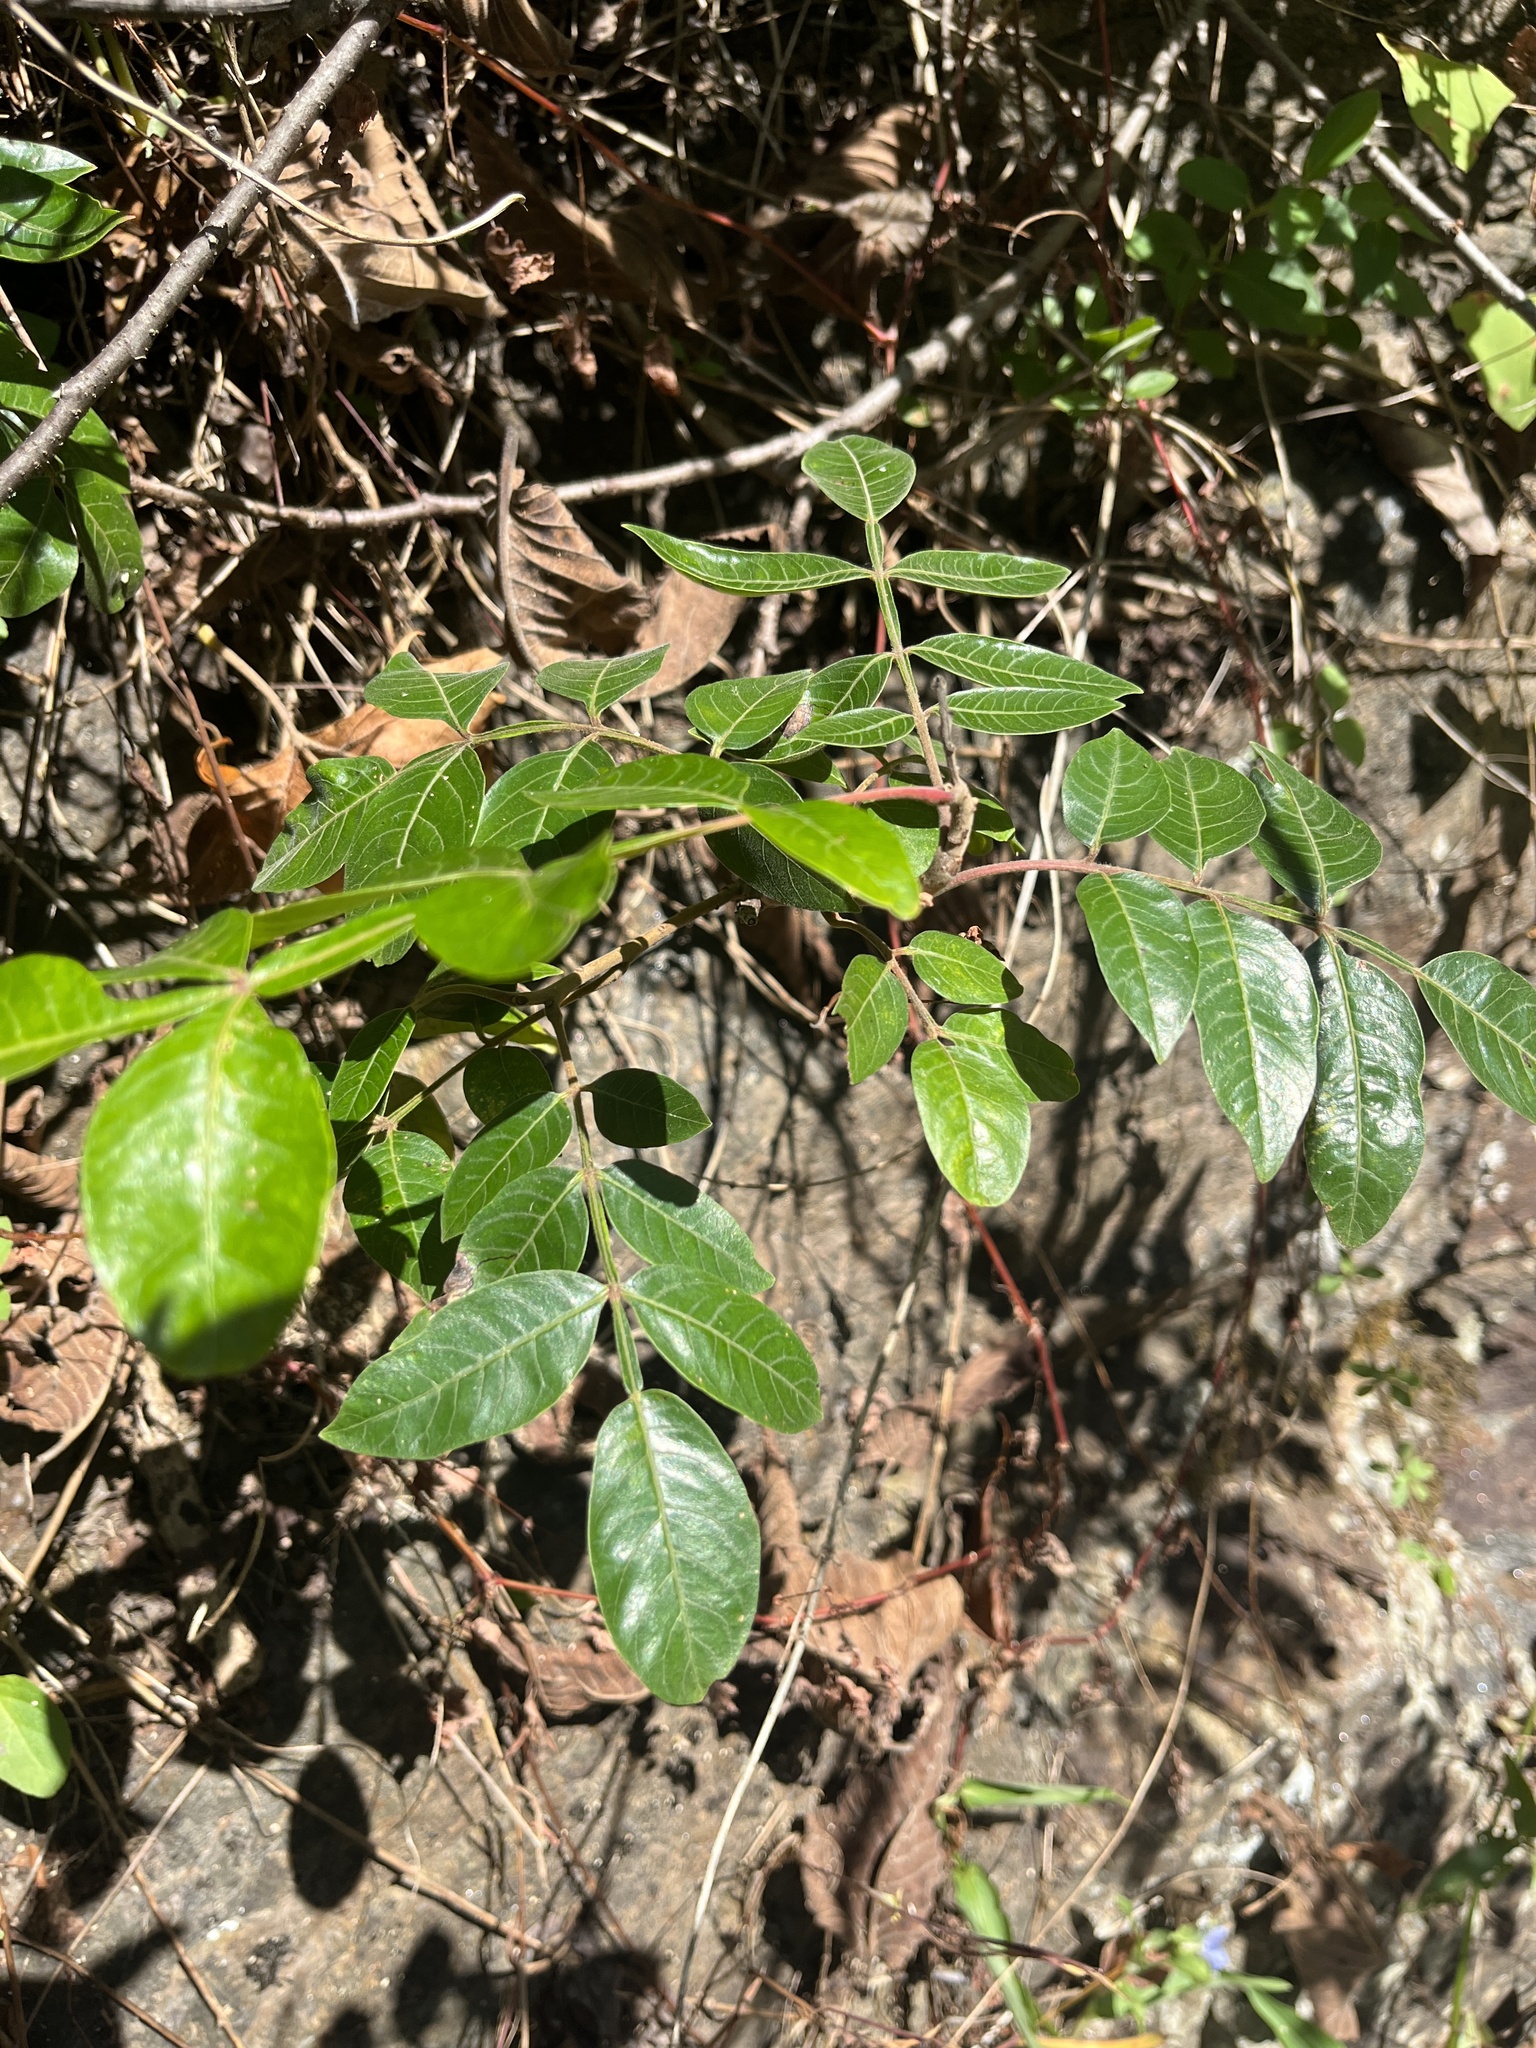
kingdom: Plantae
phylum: Tracheophyta
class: Magnoliopsida
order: Sapindales
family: Anacardiaceae
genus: Rhus
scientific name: Rhus copallina
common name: Shining sumac
